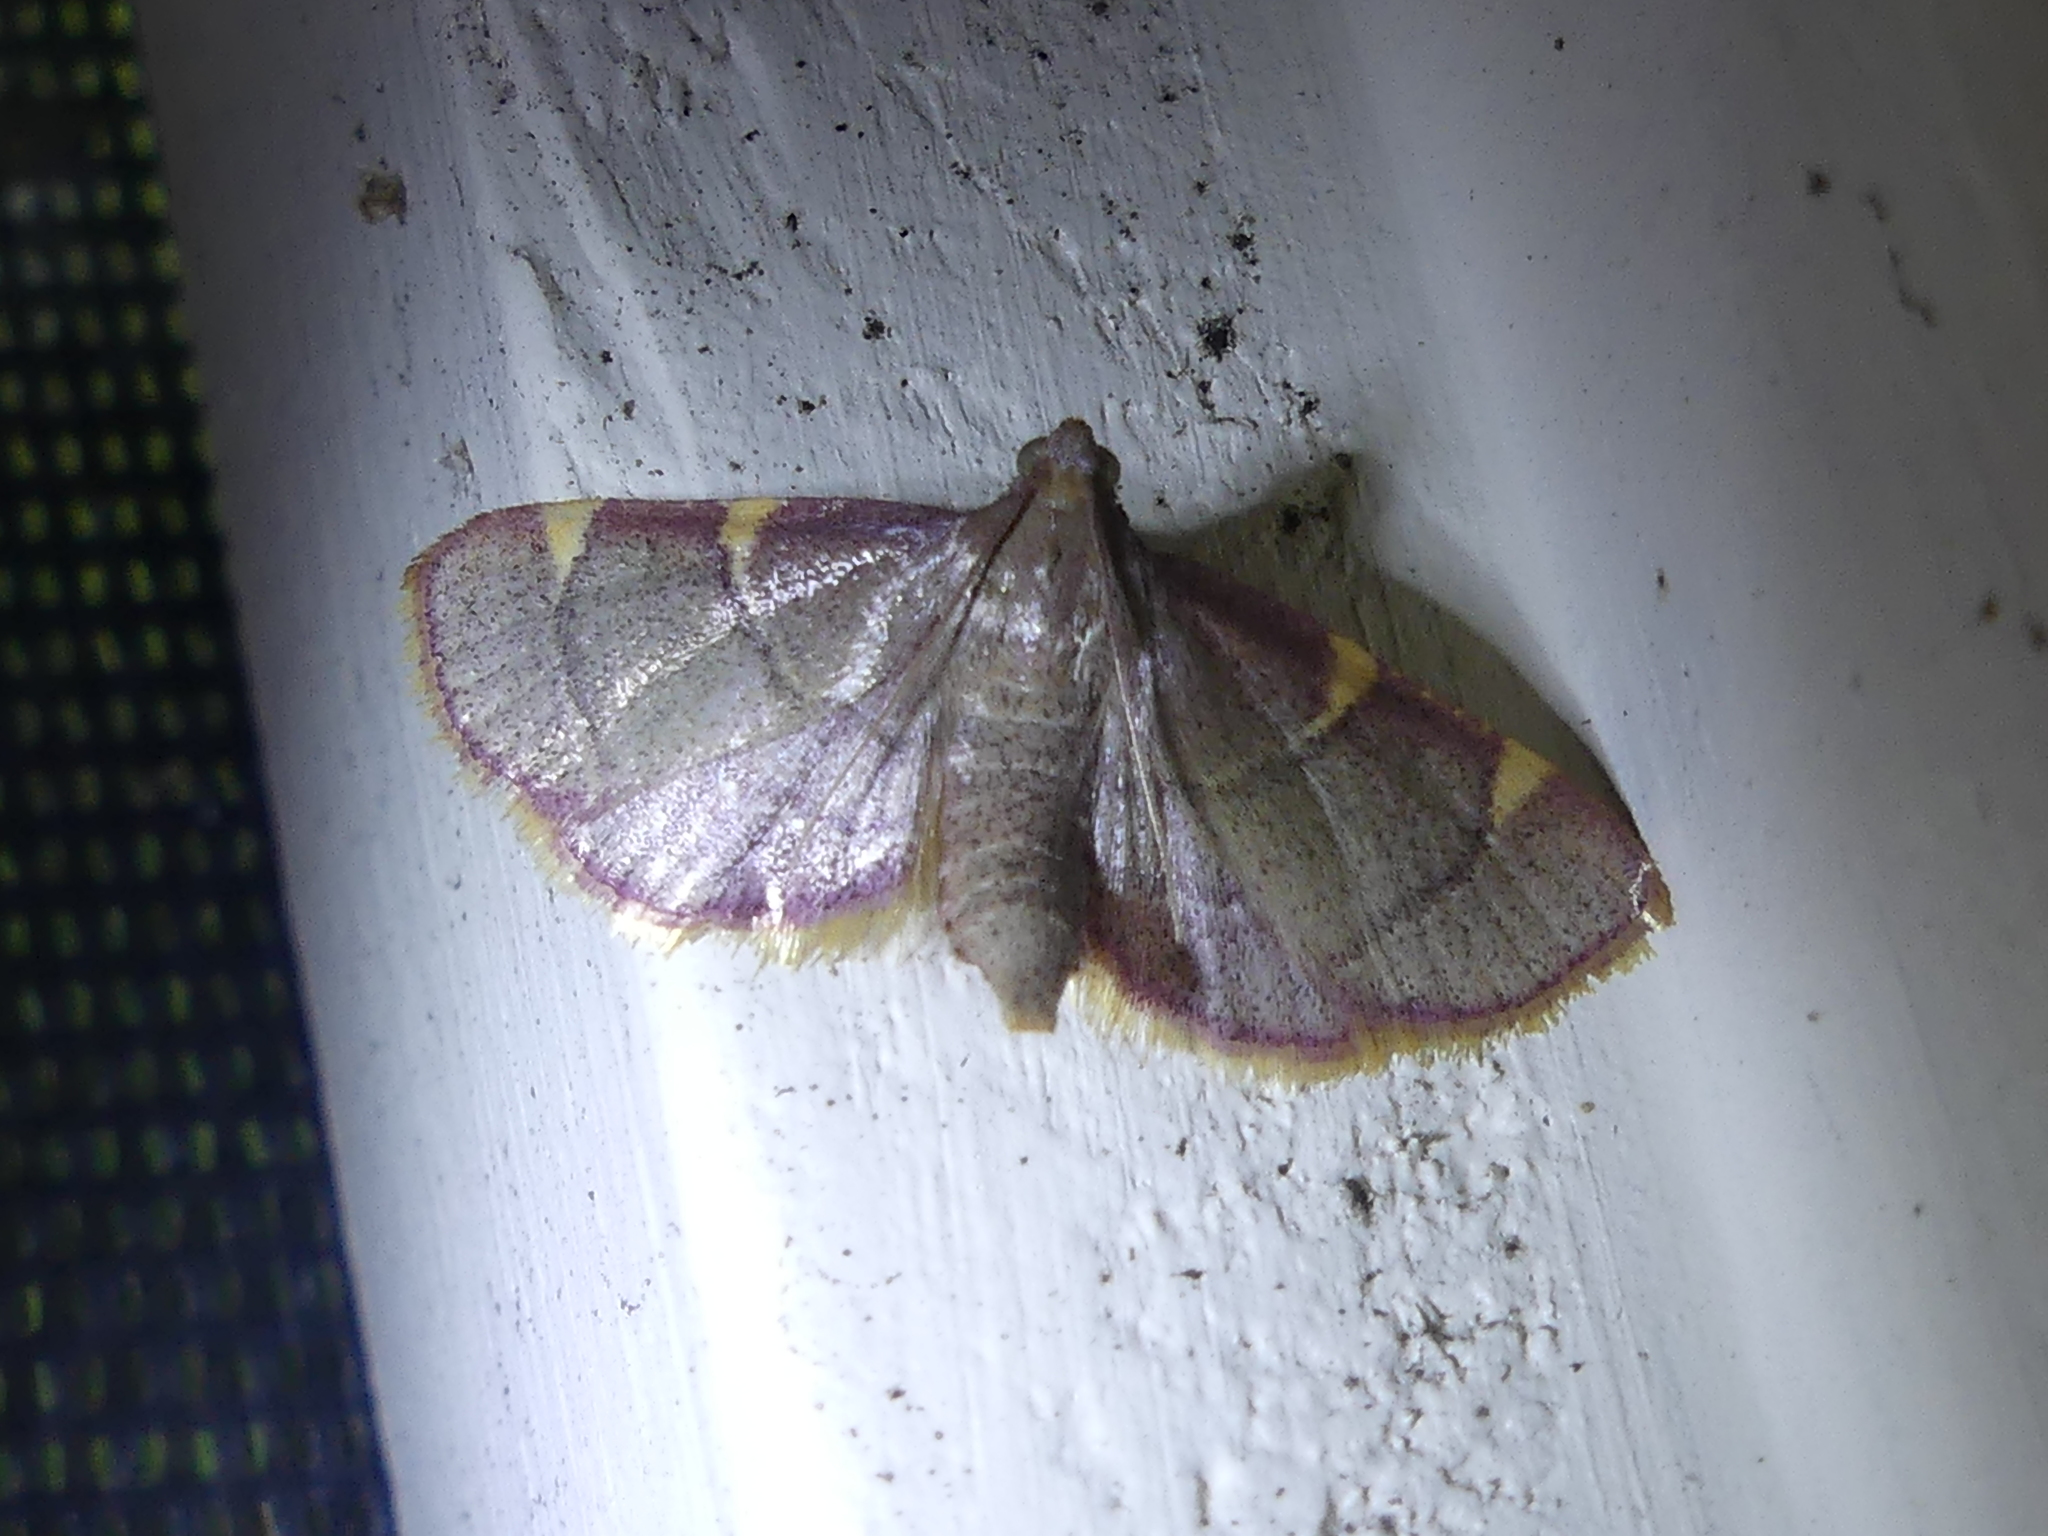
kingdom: Animalia
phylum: Arthropoda
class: Insecta
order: Lepidoptera
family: Pyralidae
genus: Hypsopygia
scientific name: Hypsopygia olinalis
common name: Yellow-fringed dolichomia moth
